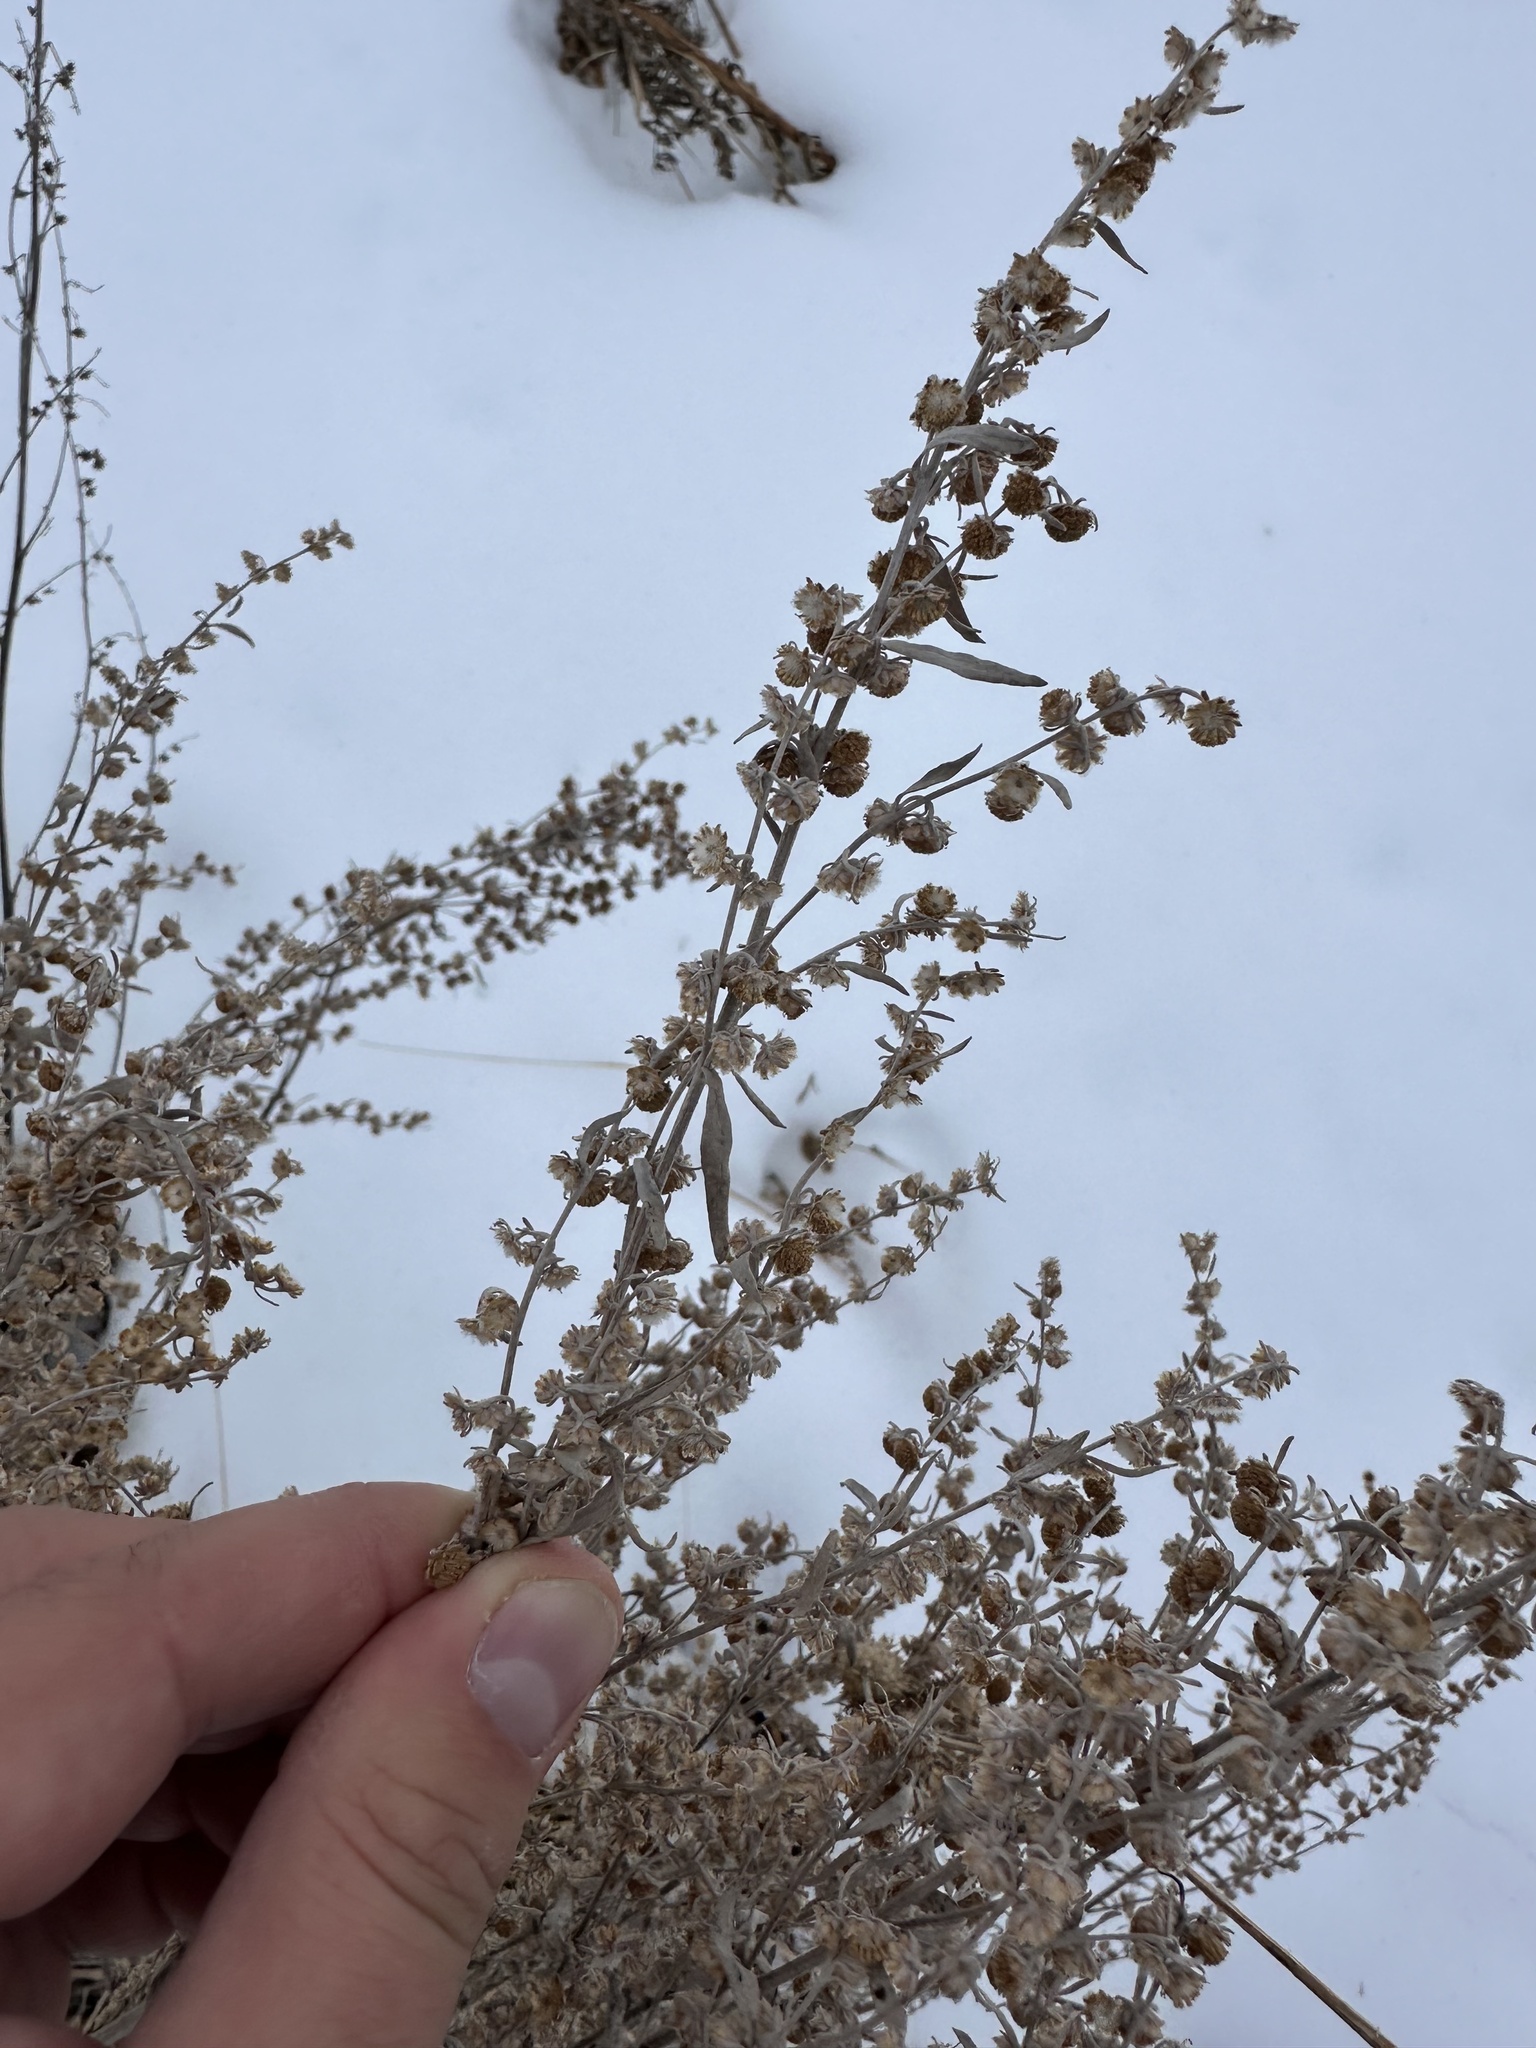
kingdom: Plantae
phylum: Tracheophyta
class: Magnoliopsida
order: Asterales
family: Asteraceae
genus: Artemisia
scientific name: Artemisia absinthium
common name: Wormwood
